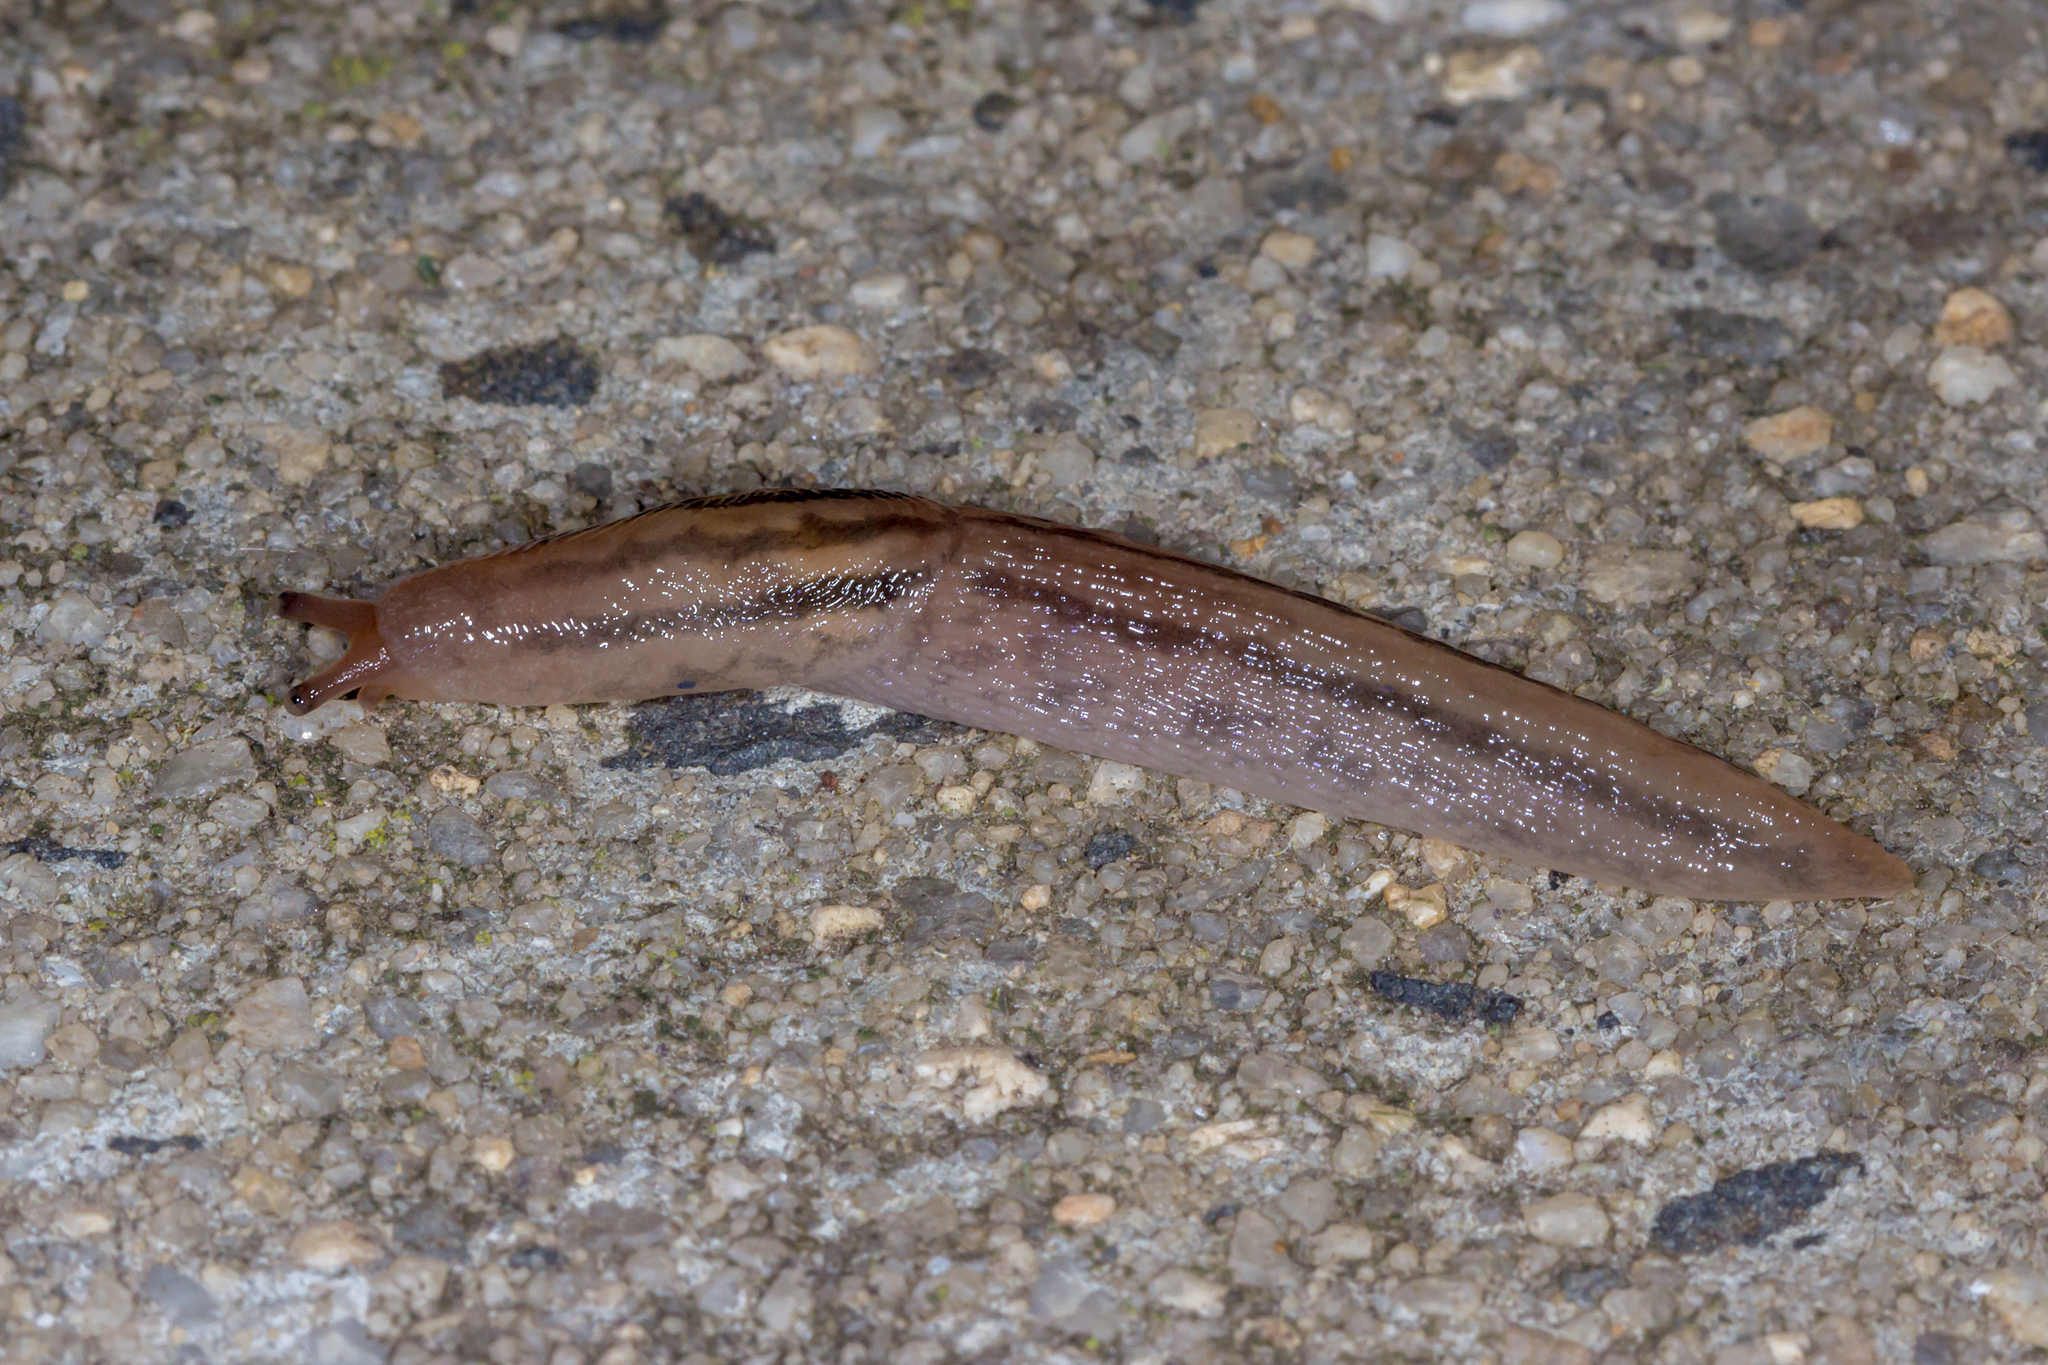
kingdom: Animalia
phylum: Mollusca
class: Gastropoda
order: Stylommatophora
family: Limacidae
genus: Ambigolimax
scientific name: Ambigolimax
